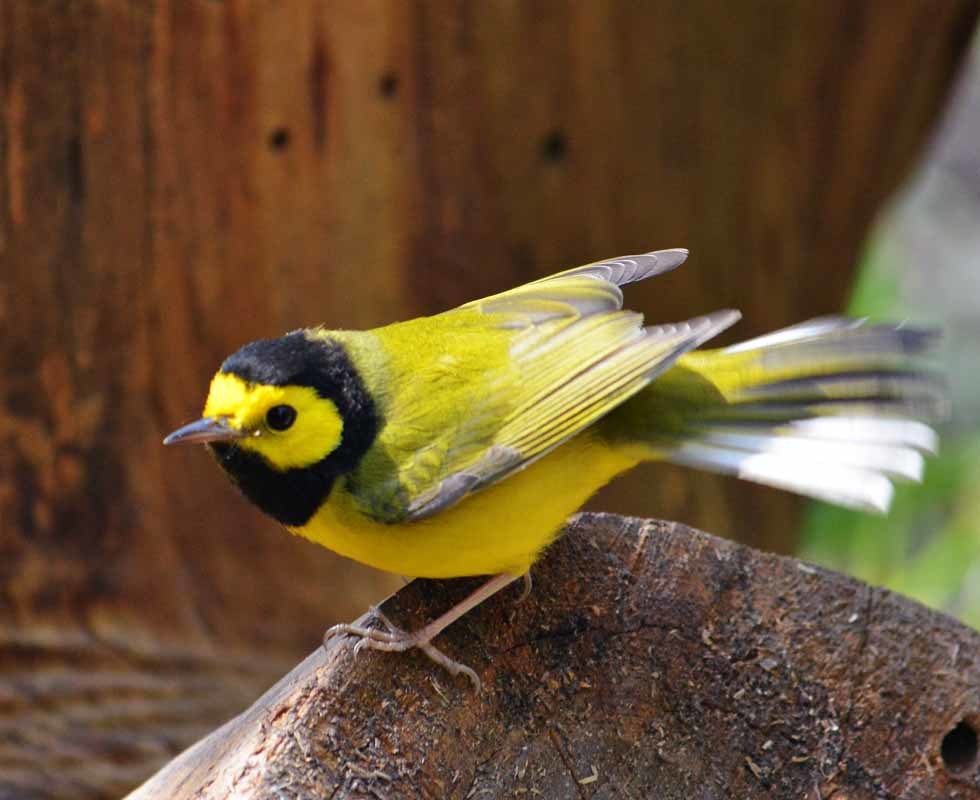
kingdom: Animalia
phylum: Chordata
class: Aves
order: Passeriformes
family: Parulidae
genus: Setophaga
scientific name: Setophaga citrina
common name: Hooded warbler
